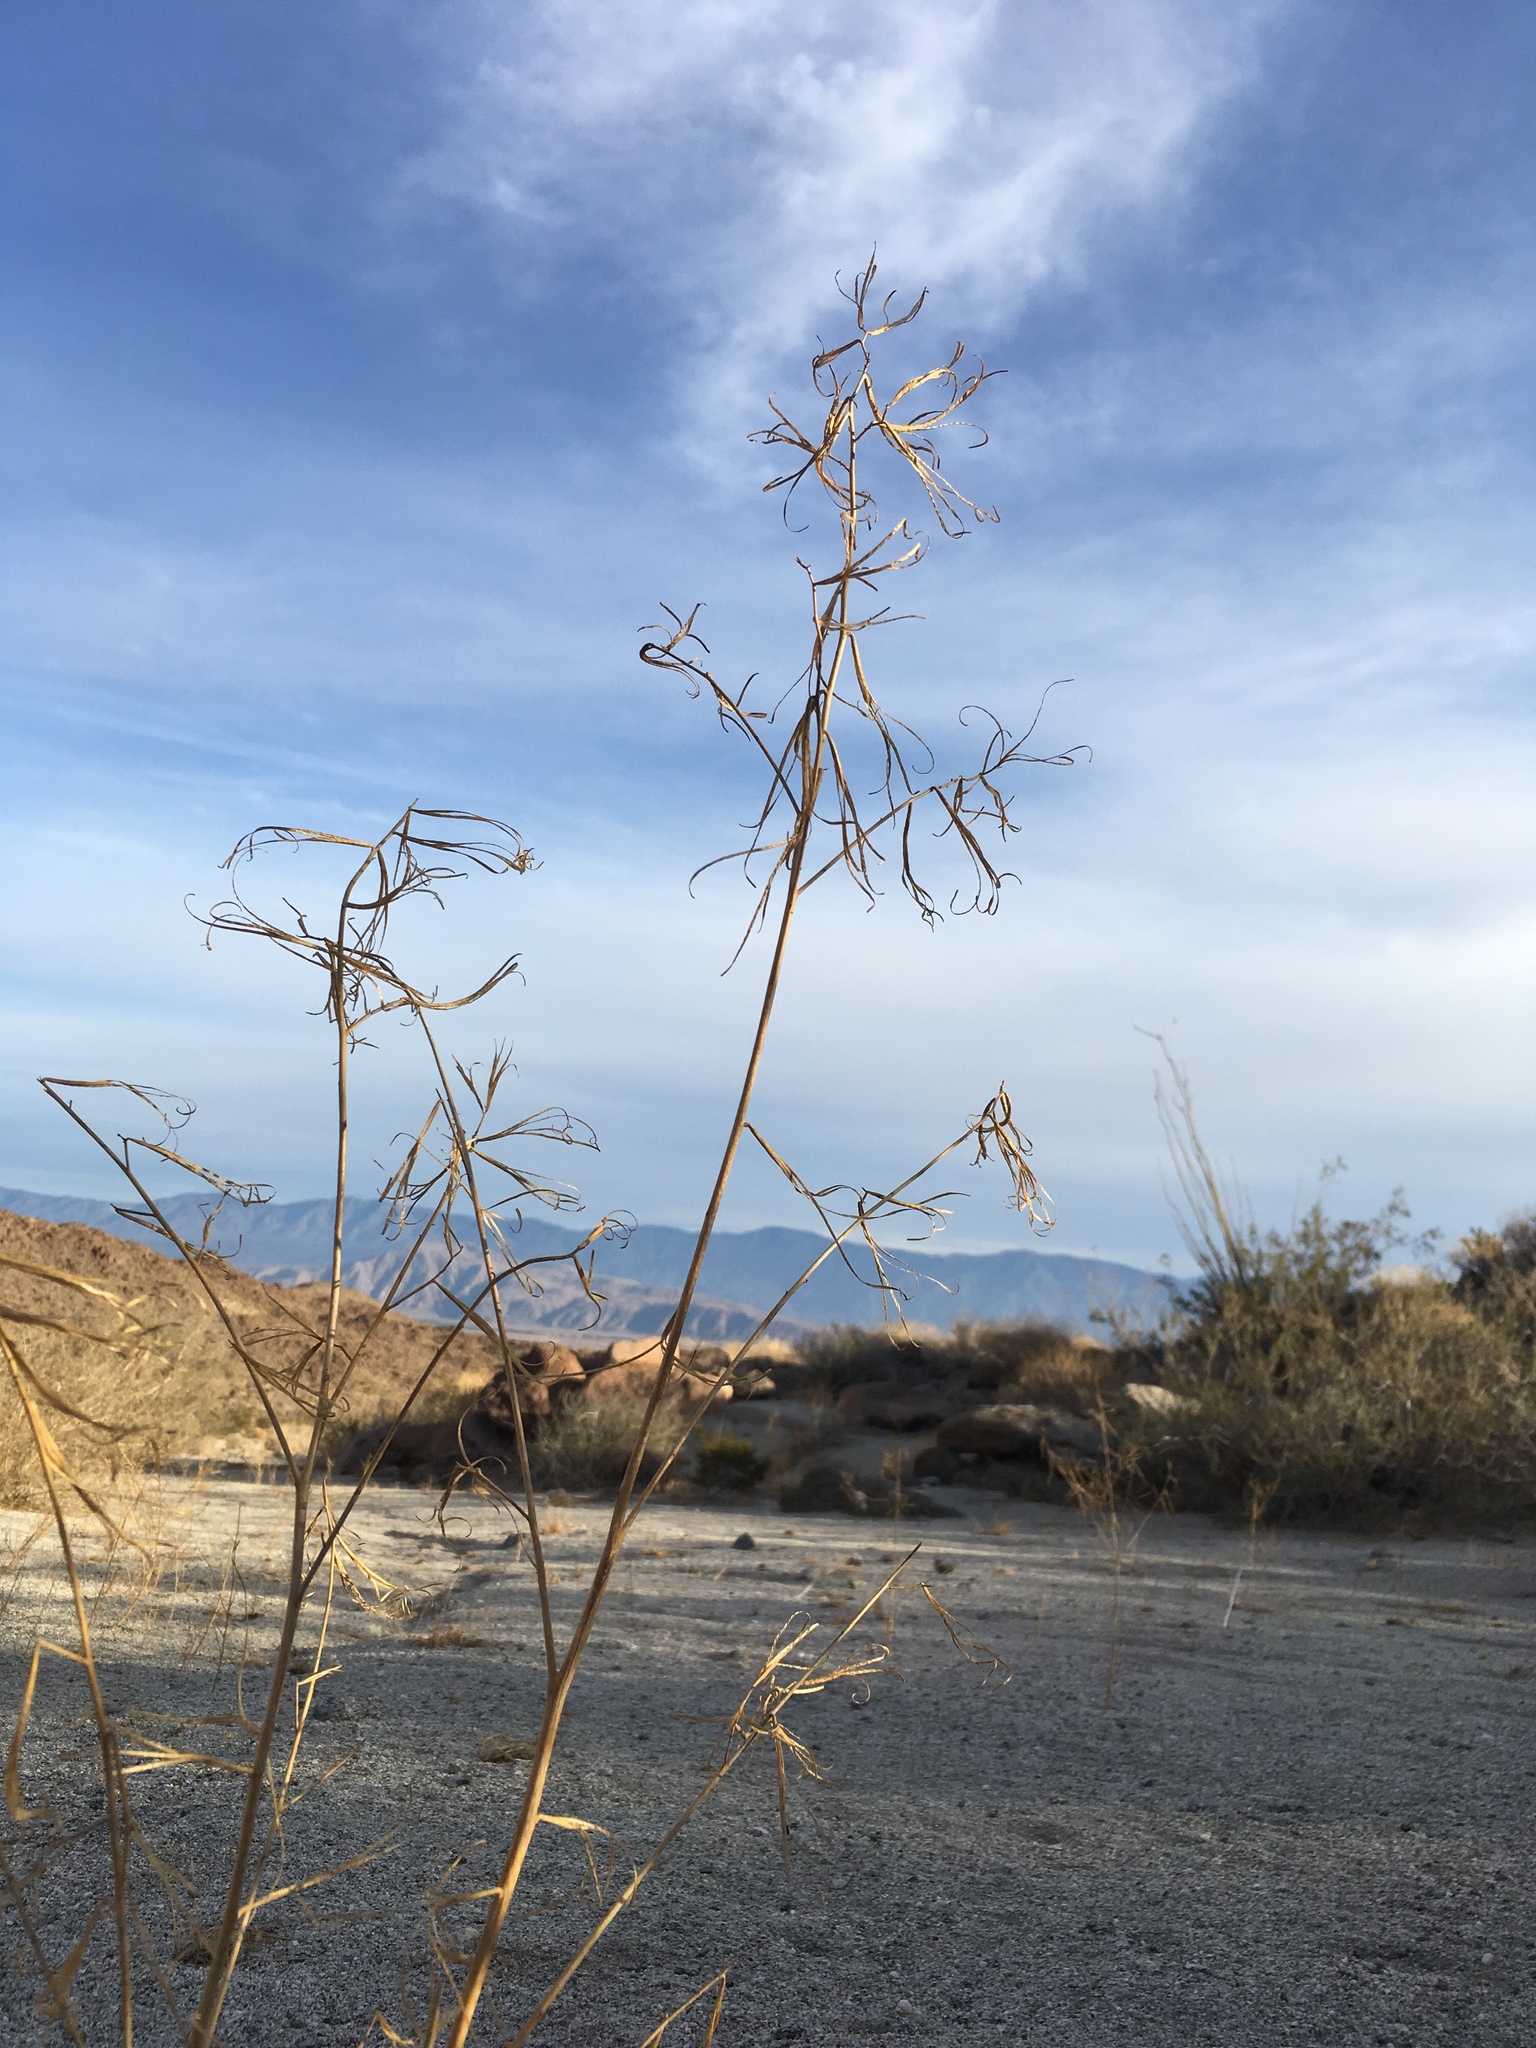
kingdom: Plantae
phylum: Tracheophyta
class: Magnoliopsida
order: Myrtales
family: Onagraceae
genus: Eulobus
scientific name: Eulobus californicus
